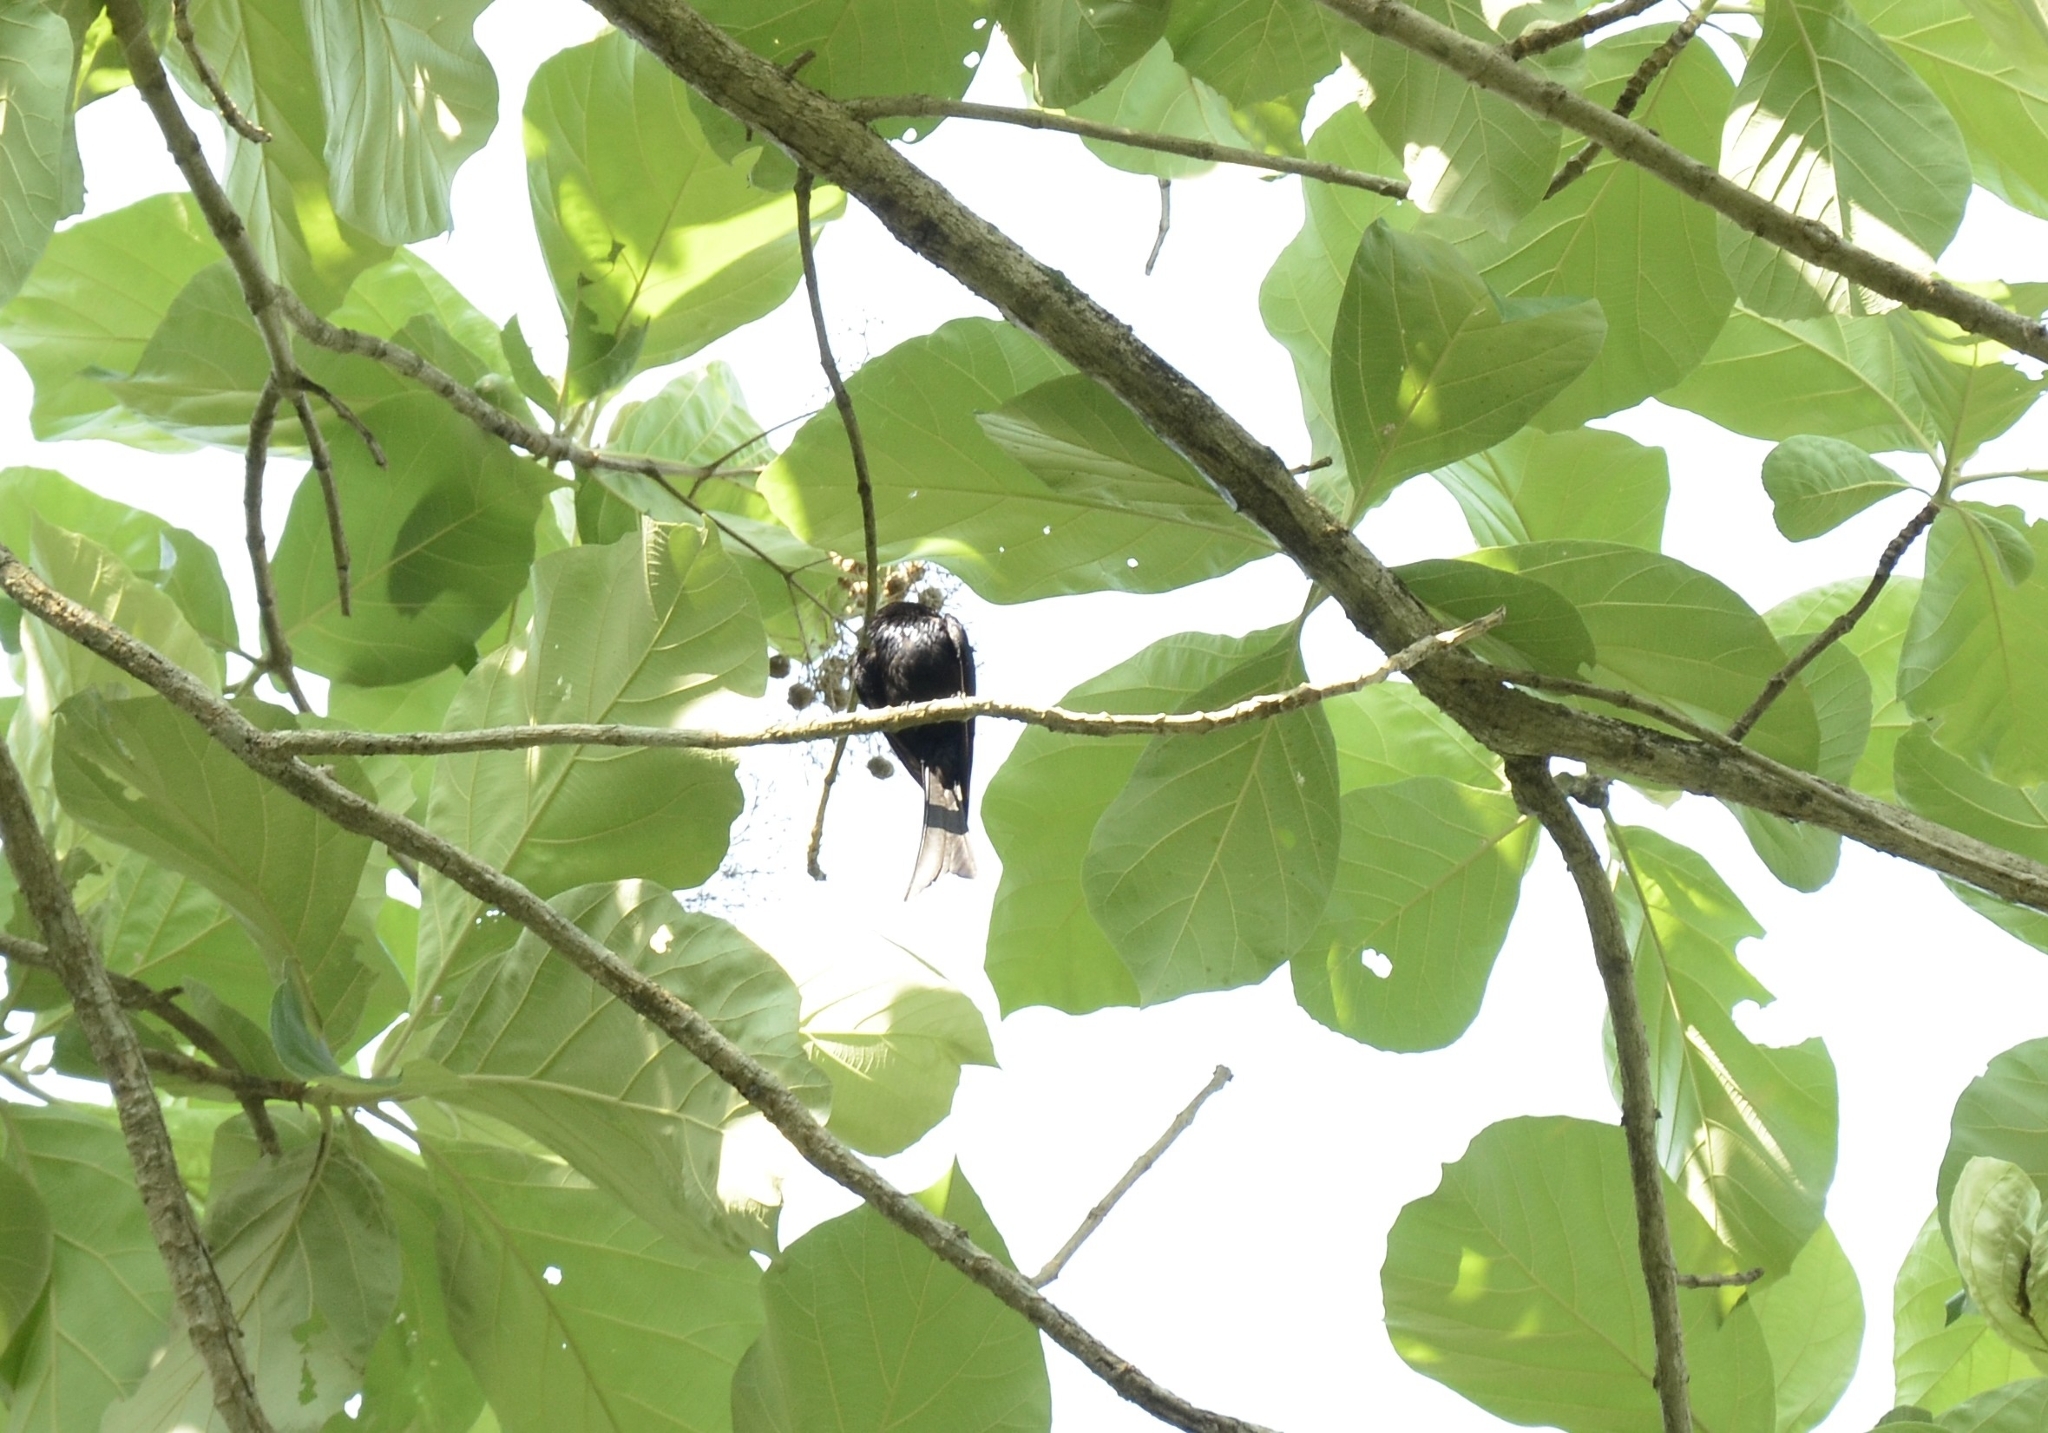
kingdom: Animalia
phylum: Chordata
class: Aves
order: Passeriformes
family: Dicruridae
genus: Dicrurus
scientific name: Dicrurus aeneus
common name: Bronzed drongo
